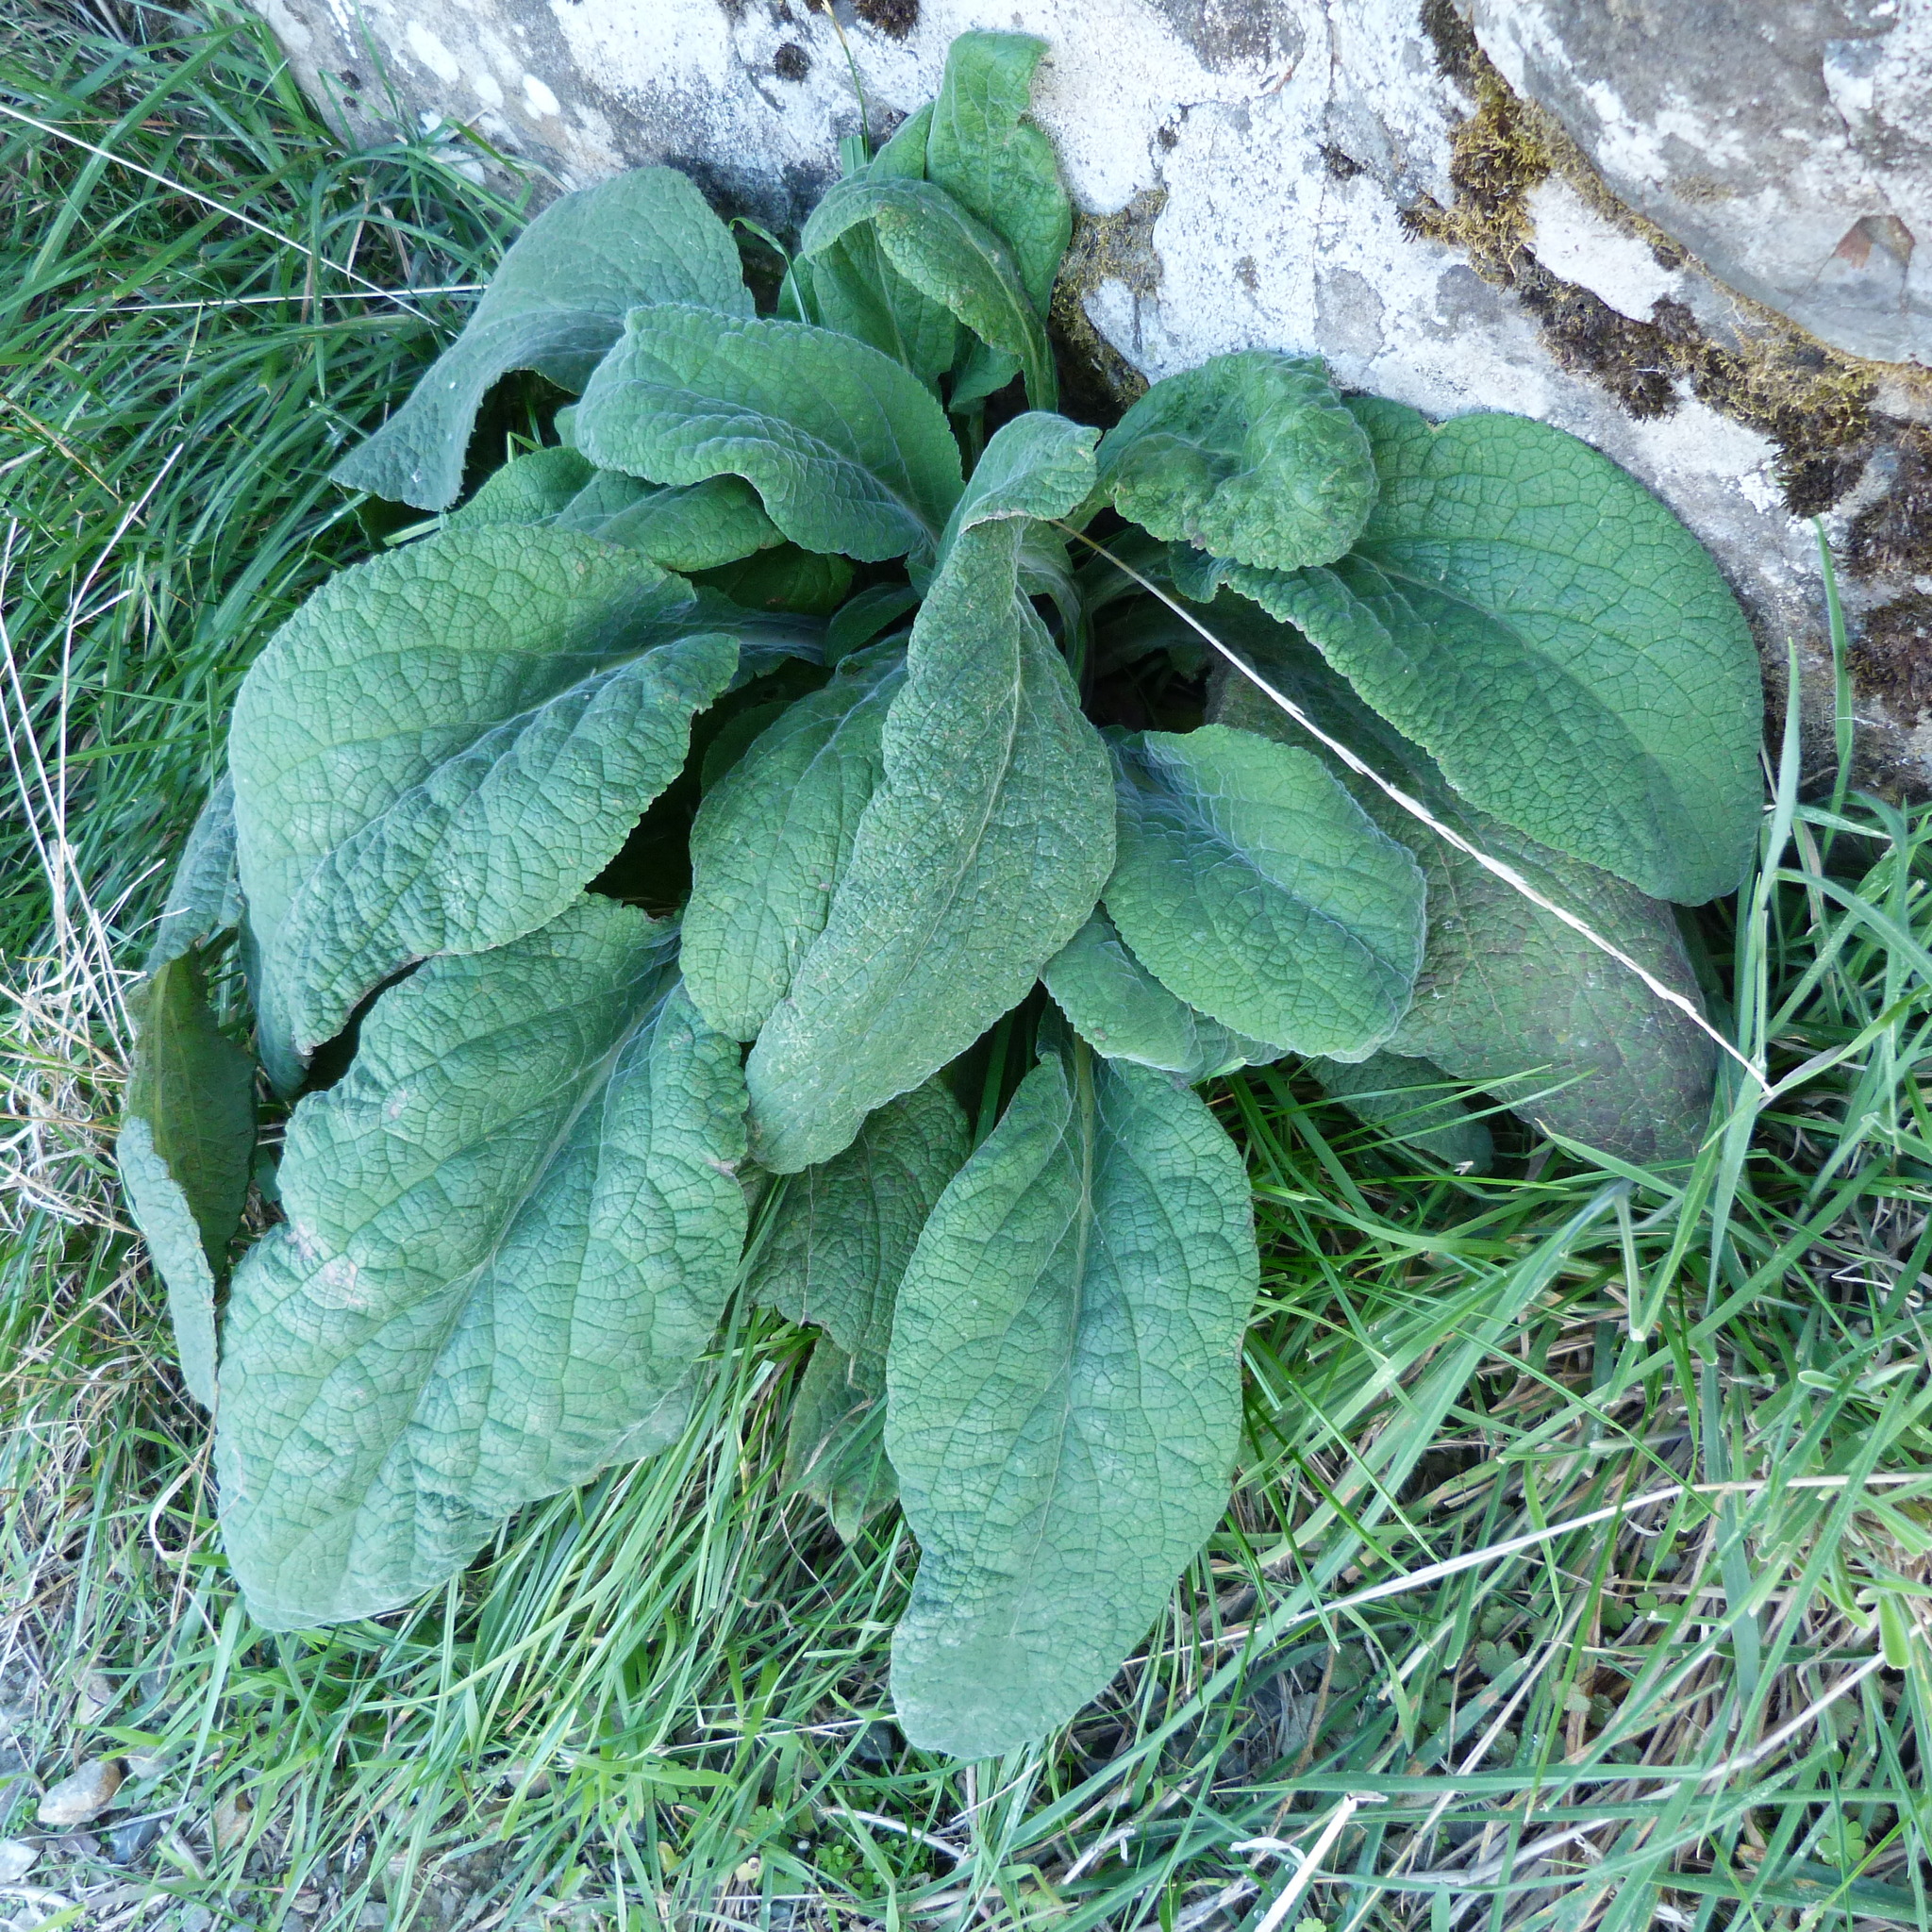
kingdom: Plantae
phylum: Tracheophyta
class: Magnoliopsida
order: Lamiales
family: Plantaginaceae
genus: Digitalis
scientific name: Digitalis purpurea
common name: Foxglove
